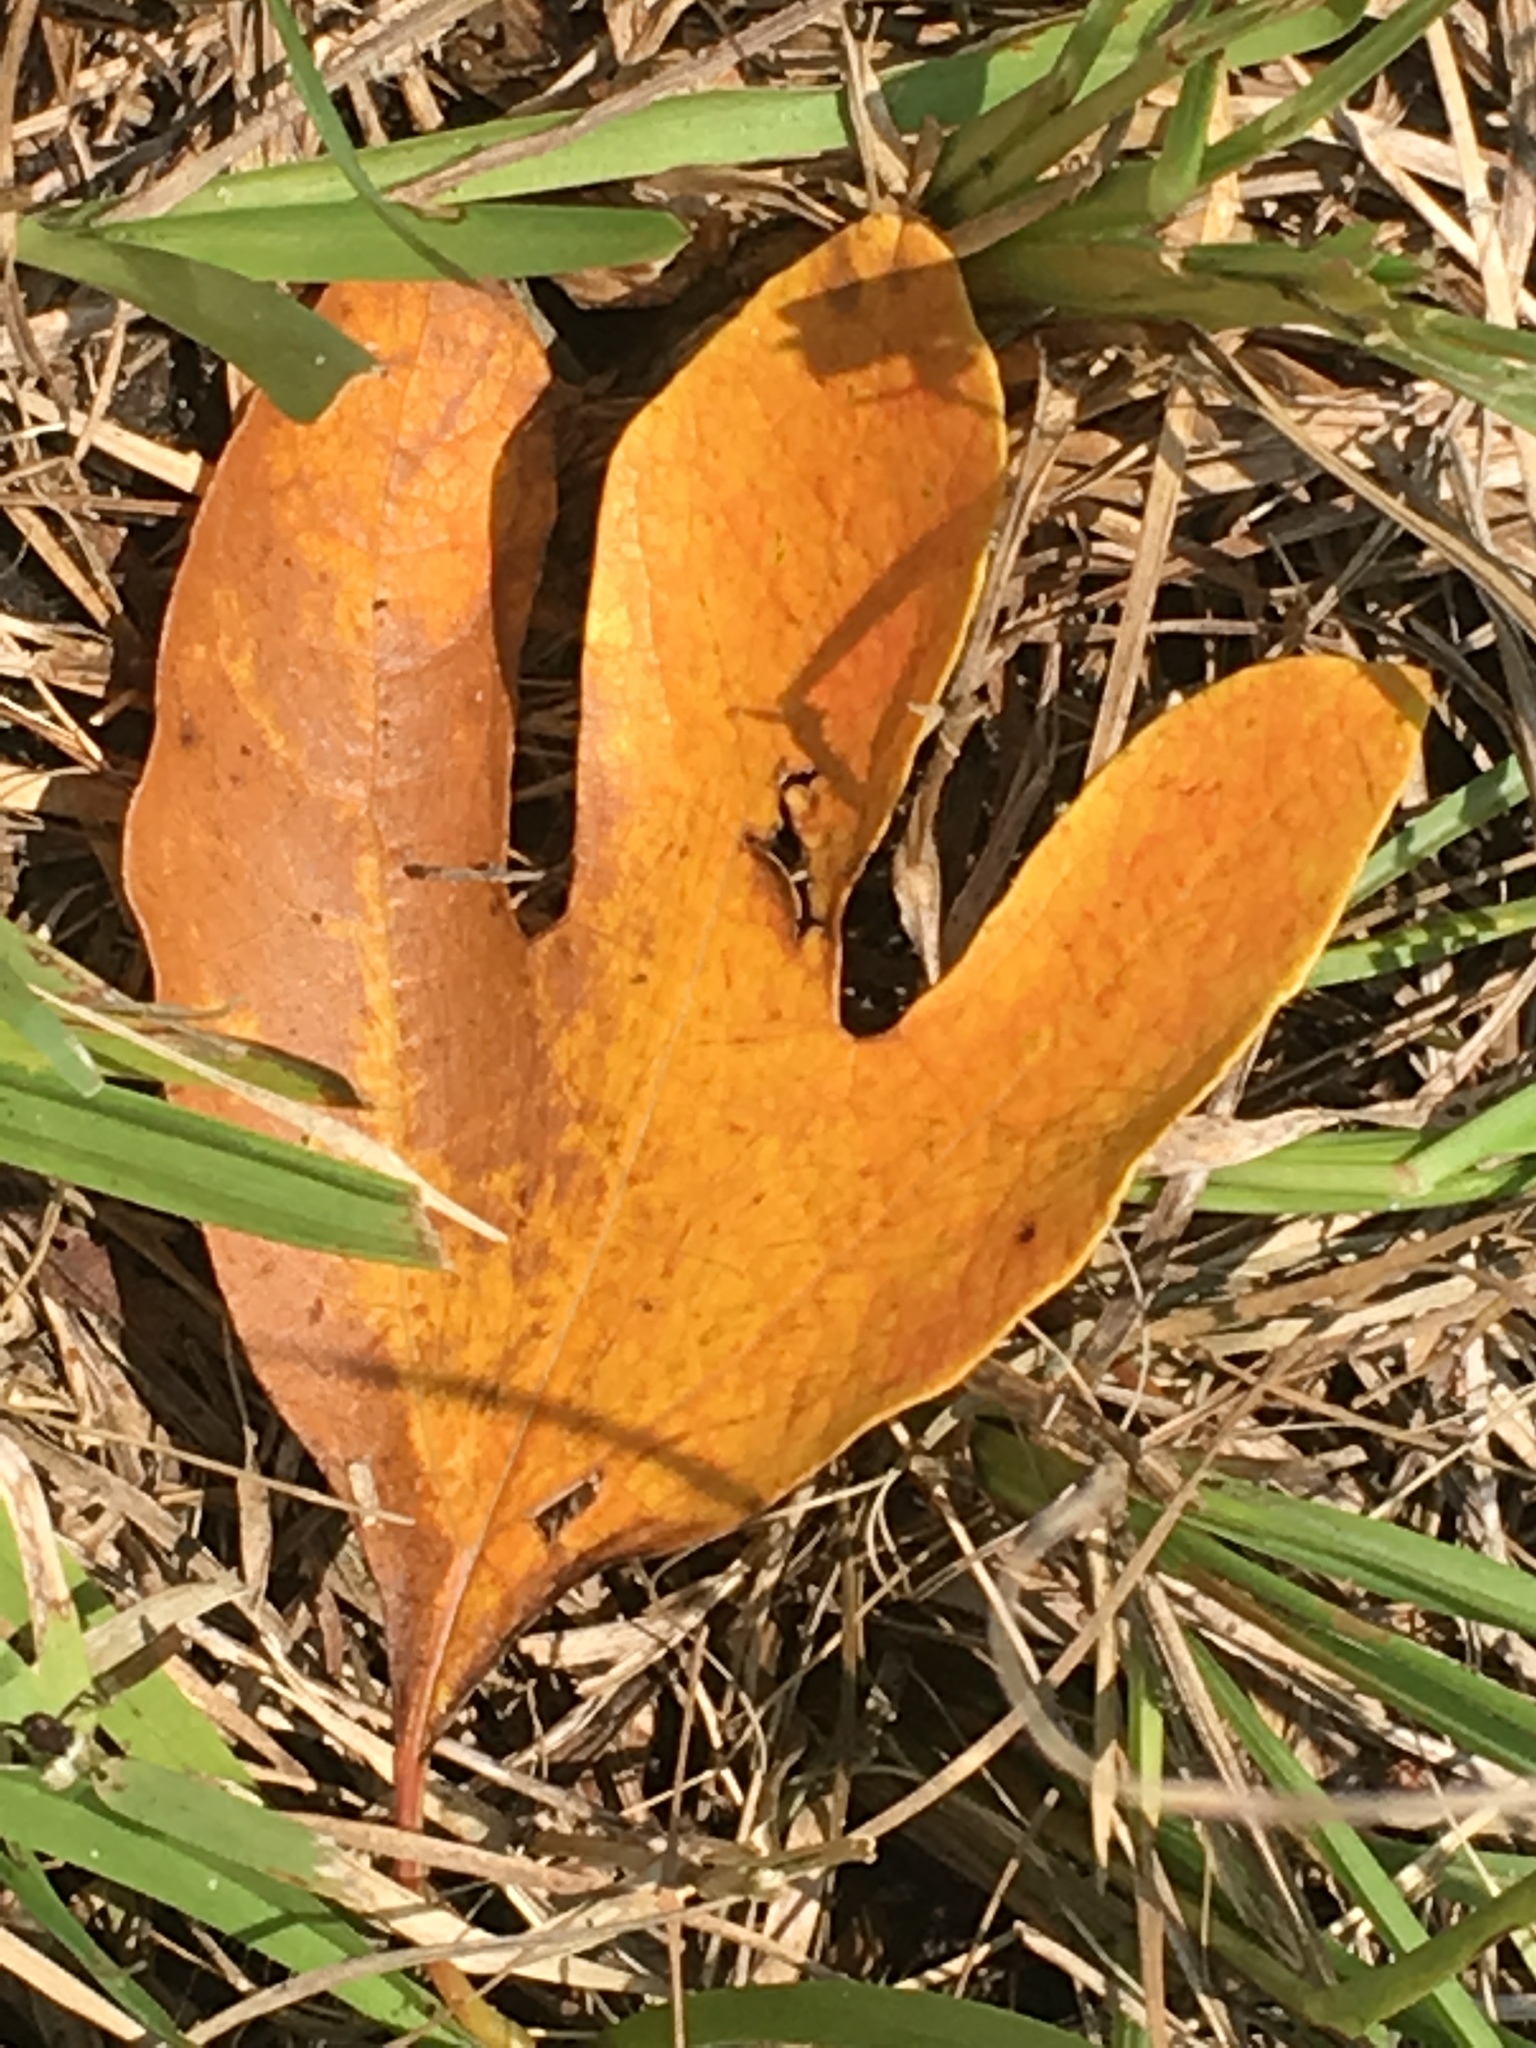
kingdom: Plantae
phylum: Tracheophyta
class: Magnoliopsida
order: Laurales
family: Lauraceae
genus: Sassafras
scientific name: Sassafras albidum
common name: Sassafras
